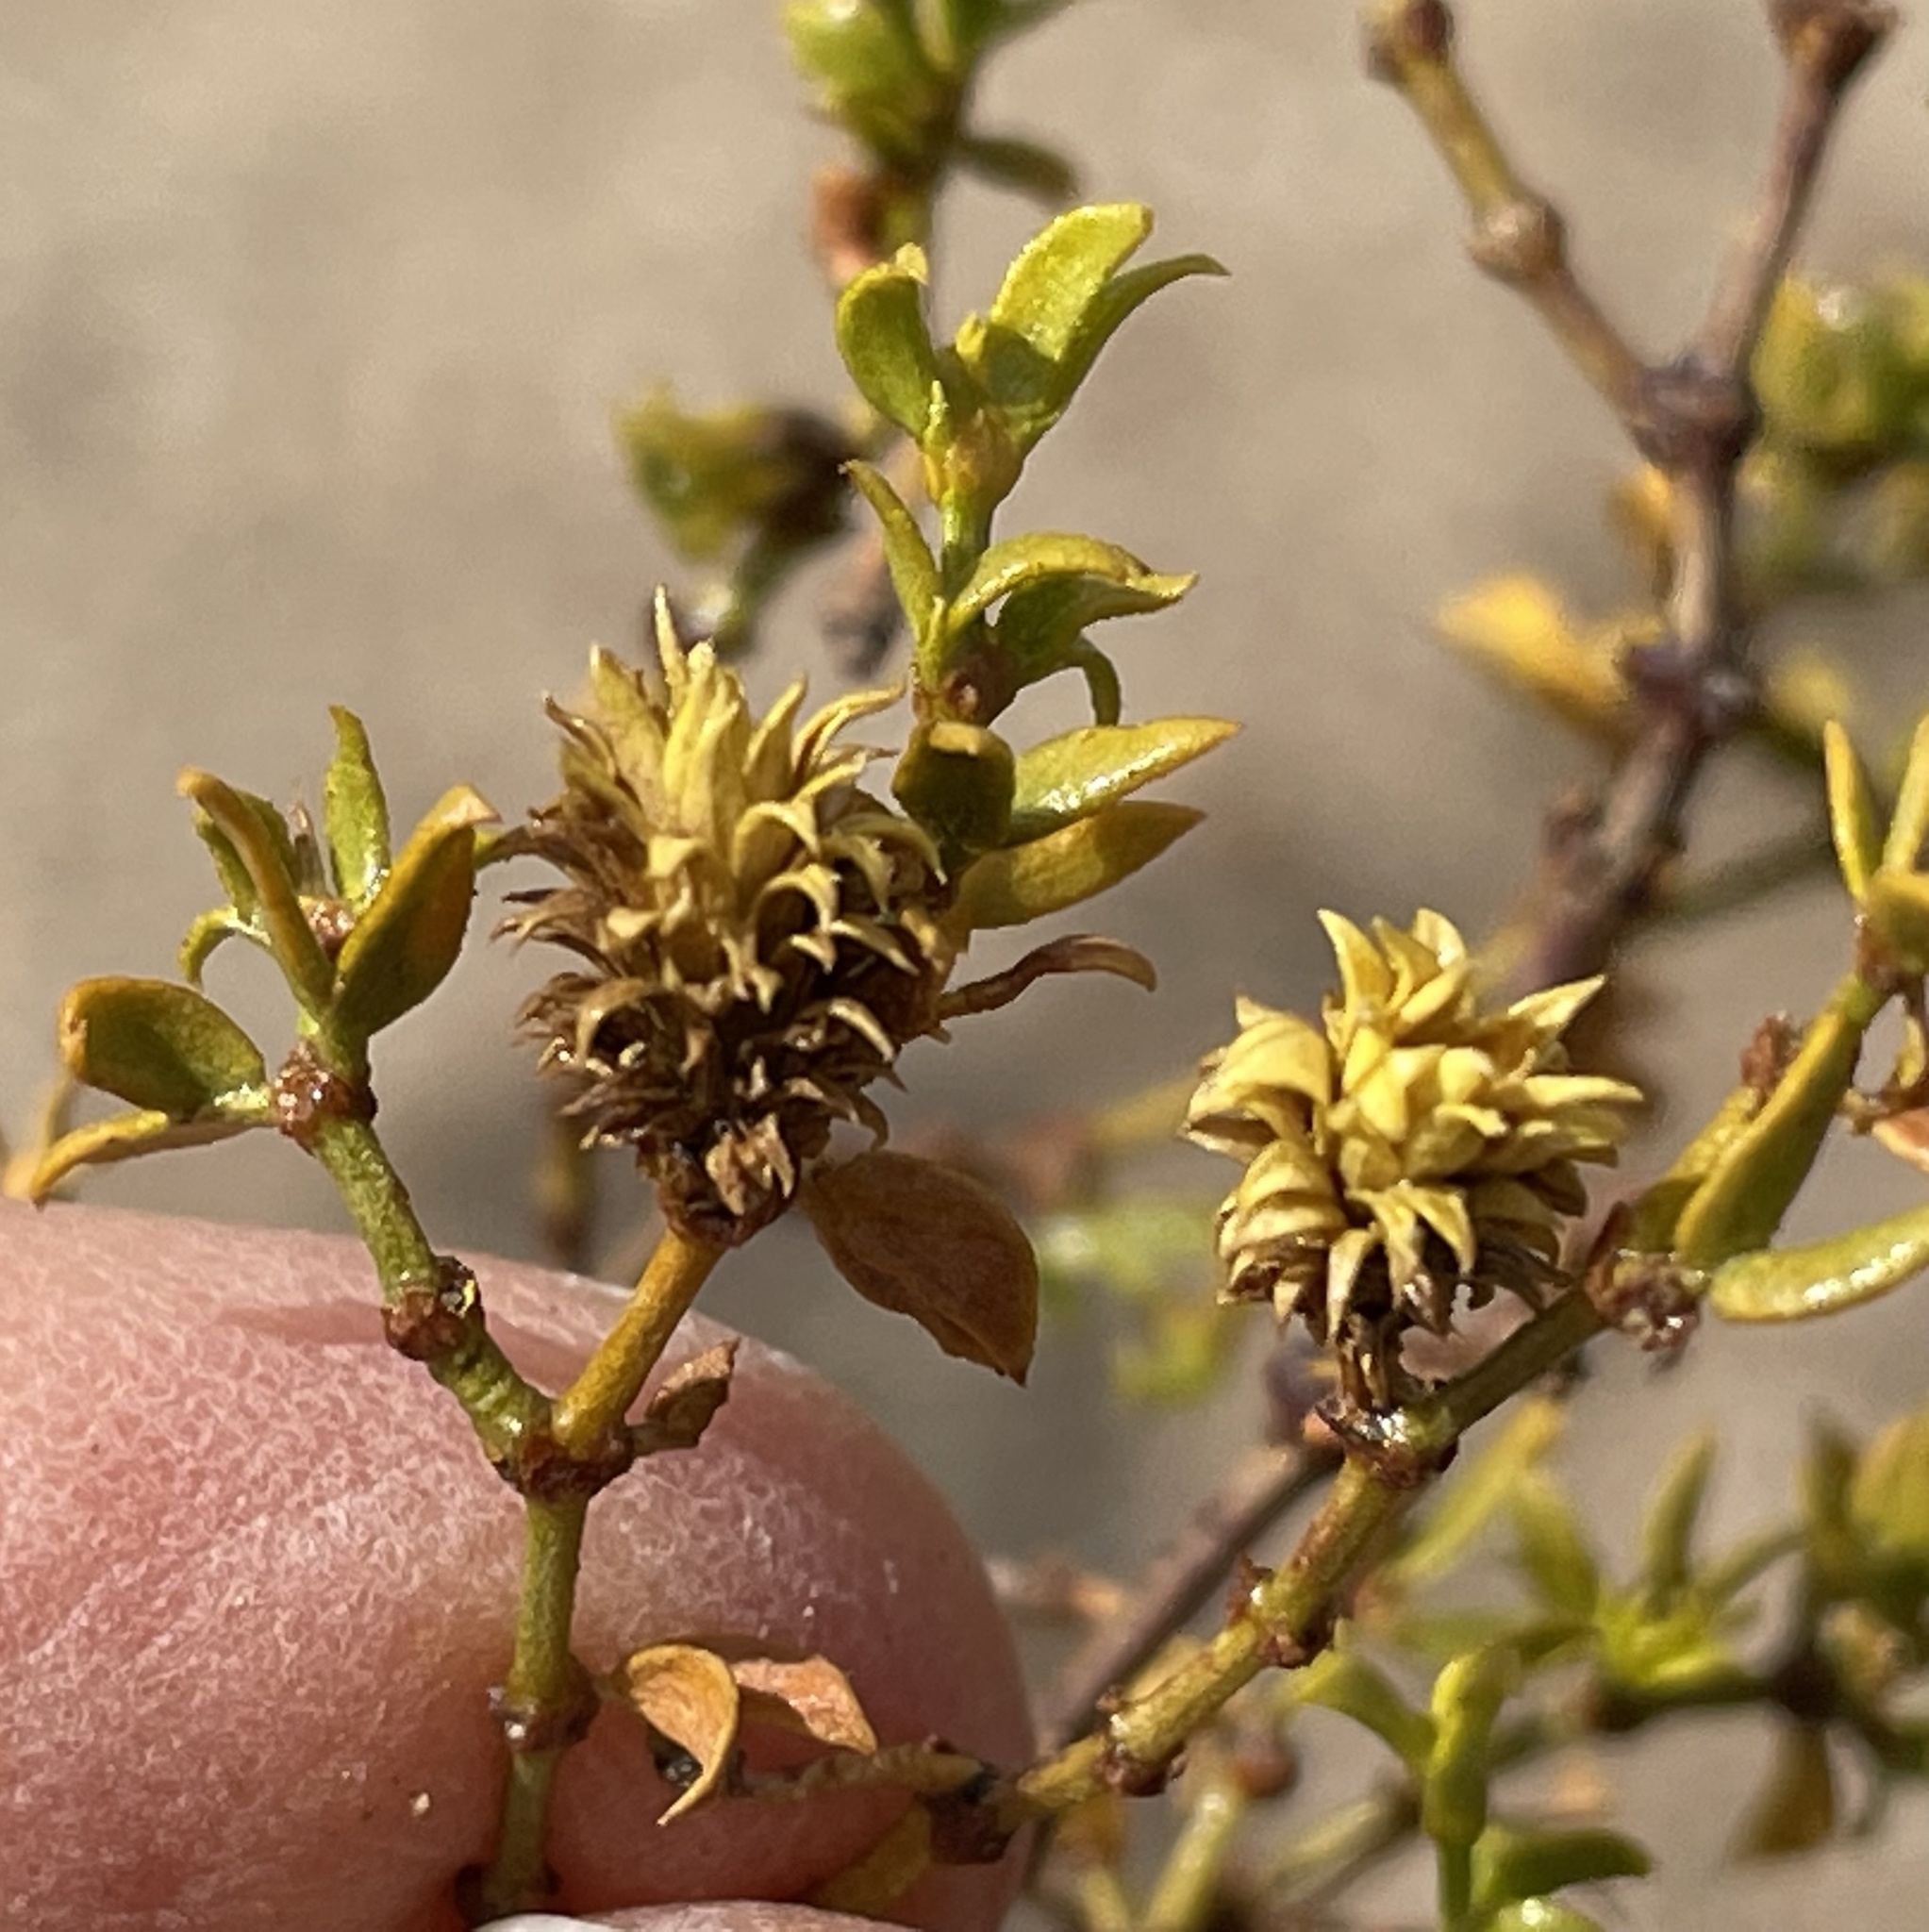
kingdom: Animalia
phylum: Arthropoda
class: Insecta
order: Diptera
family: Cecidomyiidae
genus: Asphondylia
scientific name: Asphondylia rosetta
